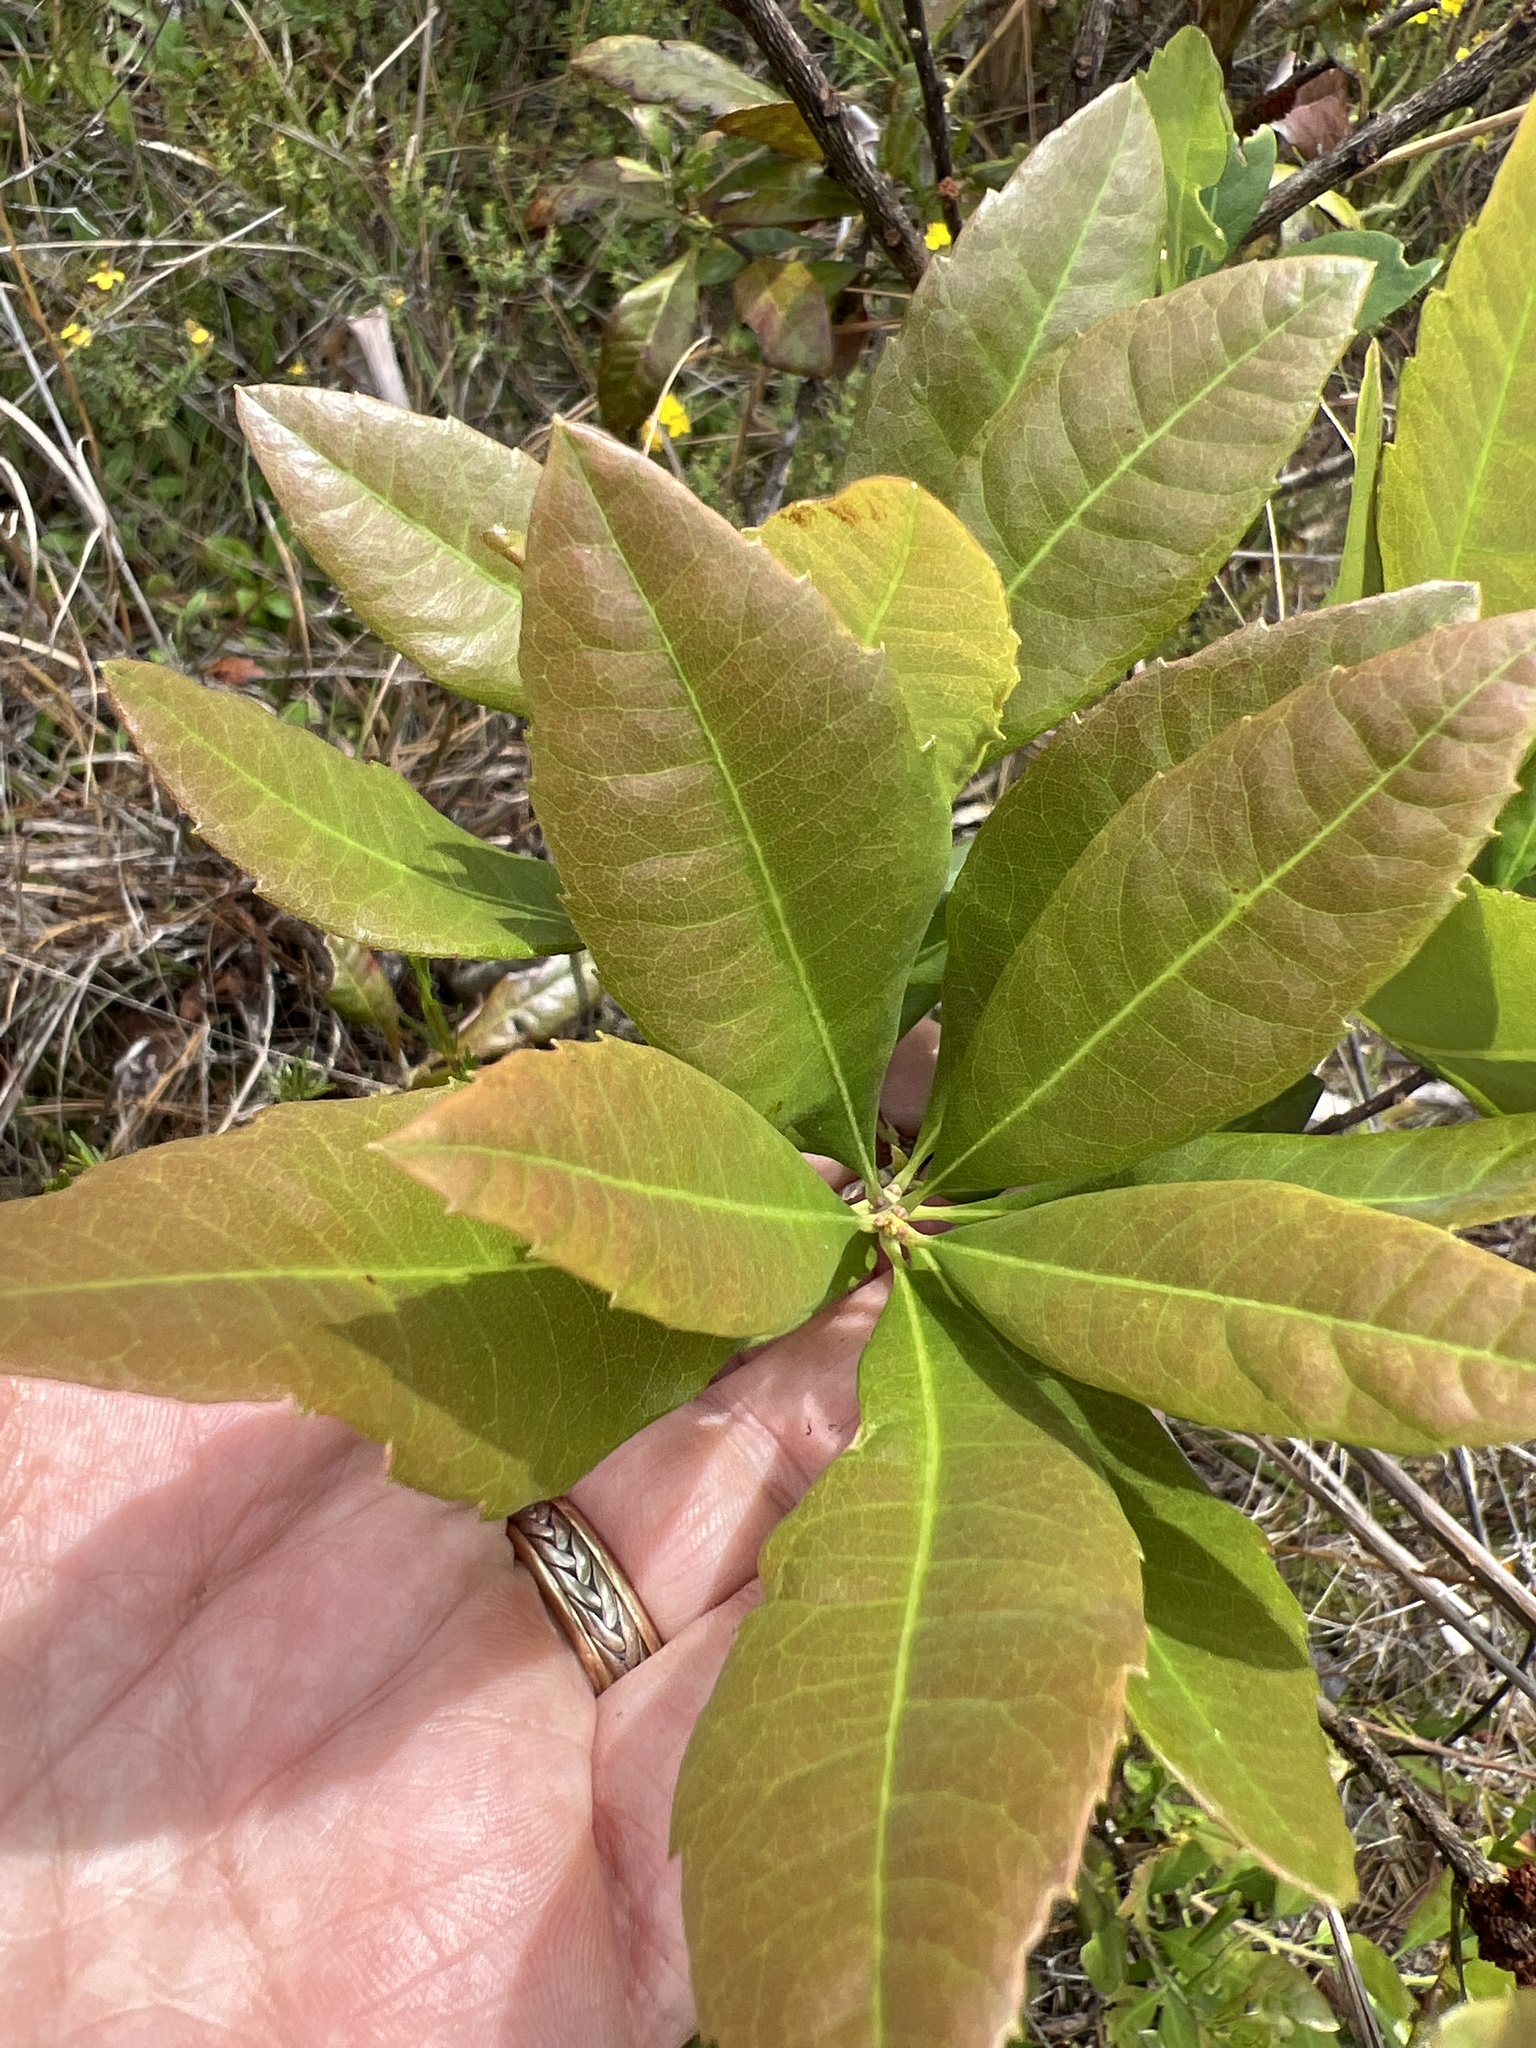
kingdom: Plantae
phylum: Tracheophyta
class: Magnoliopsida
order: Fagales
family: Myricaceae
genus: Morella
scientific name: Morella caroliniensis
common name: Evergreen bayberry
